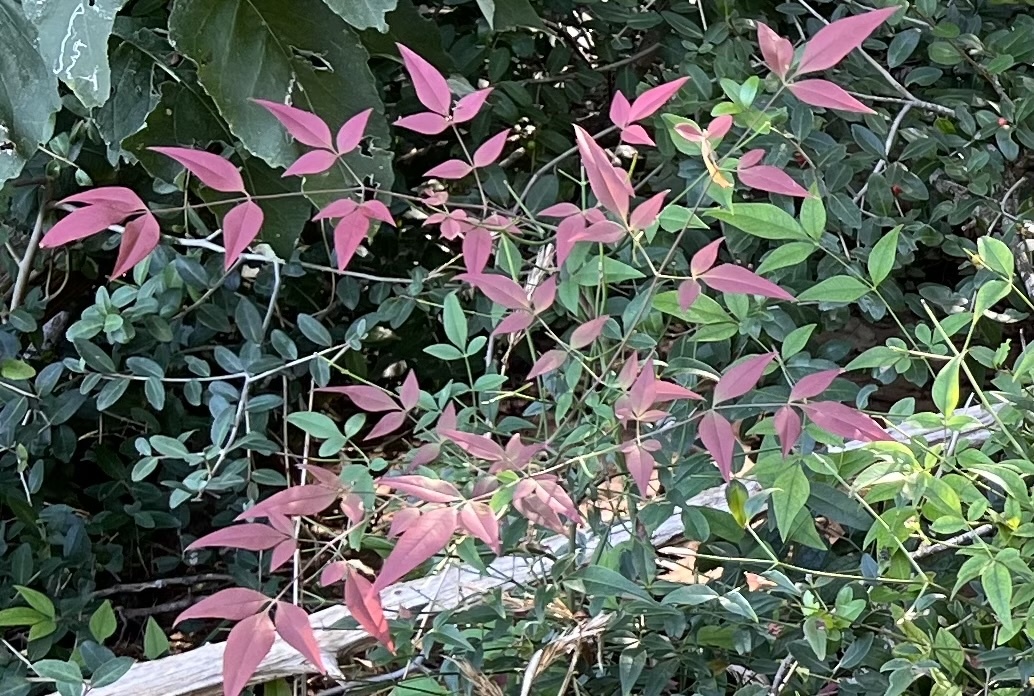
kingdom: Plantae
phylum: Tracheophyta
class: Magnoliopsida
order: Ranunculales
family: Berberidaceae
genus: Nandina
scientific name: Nandina domestica
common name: Sacred bamboo
